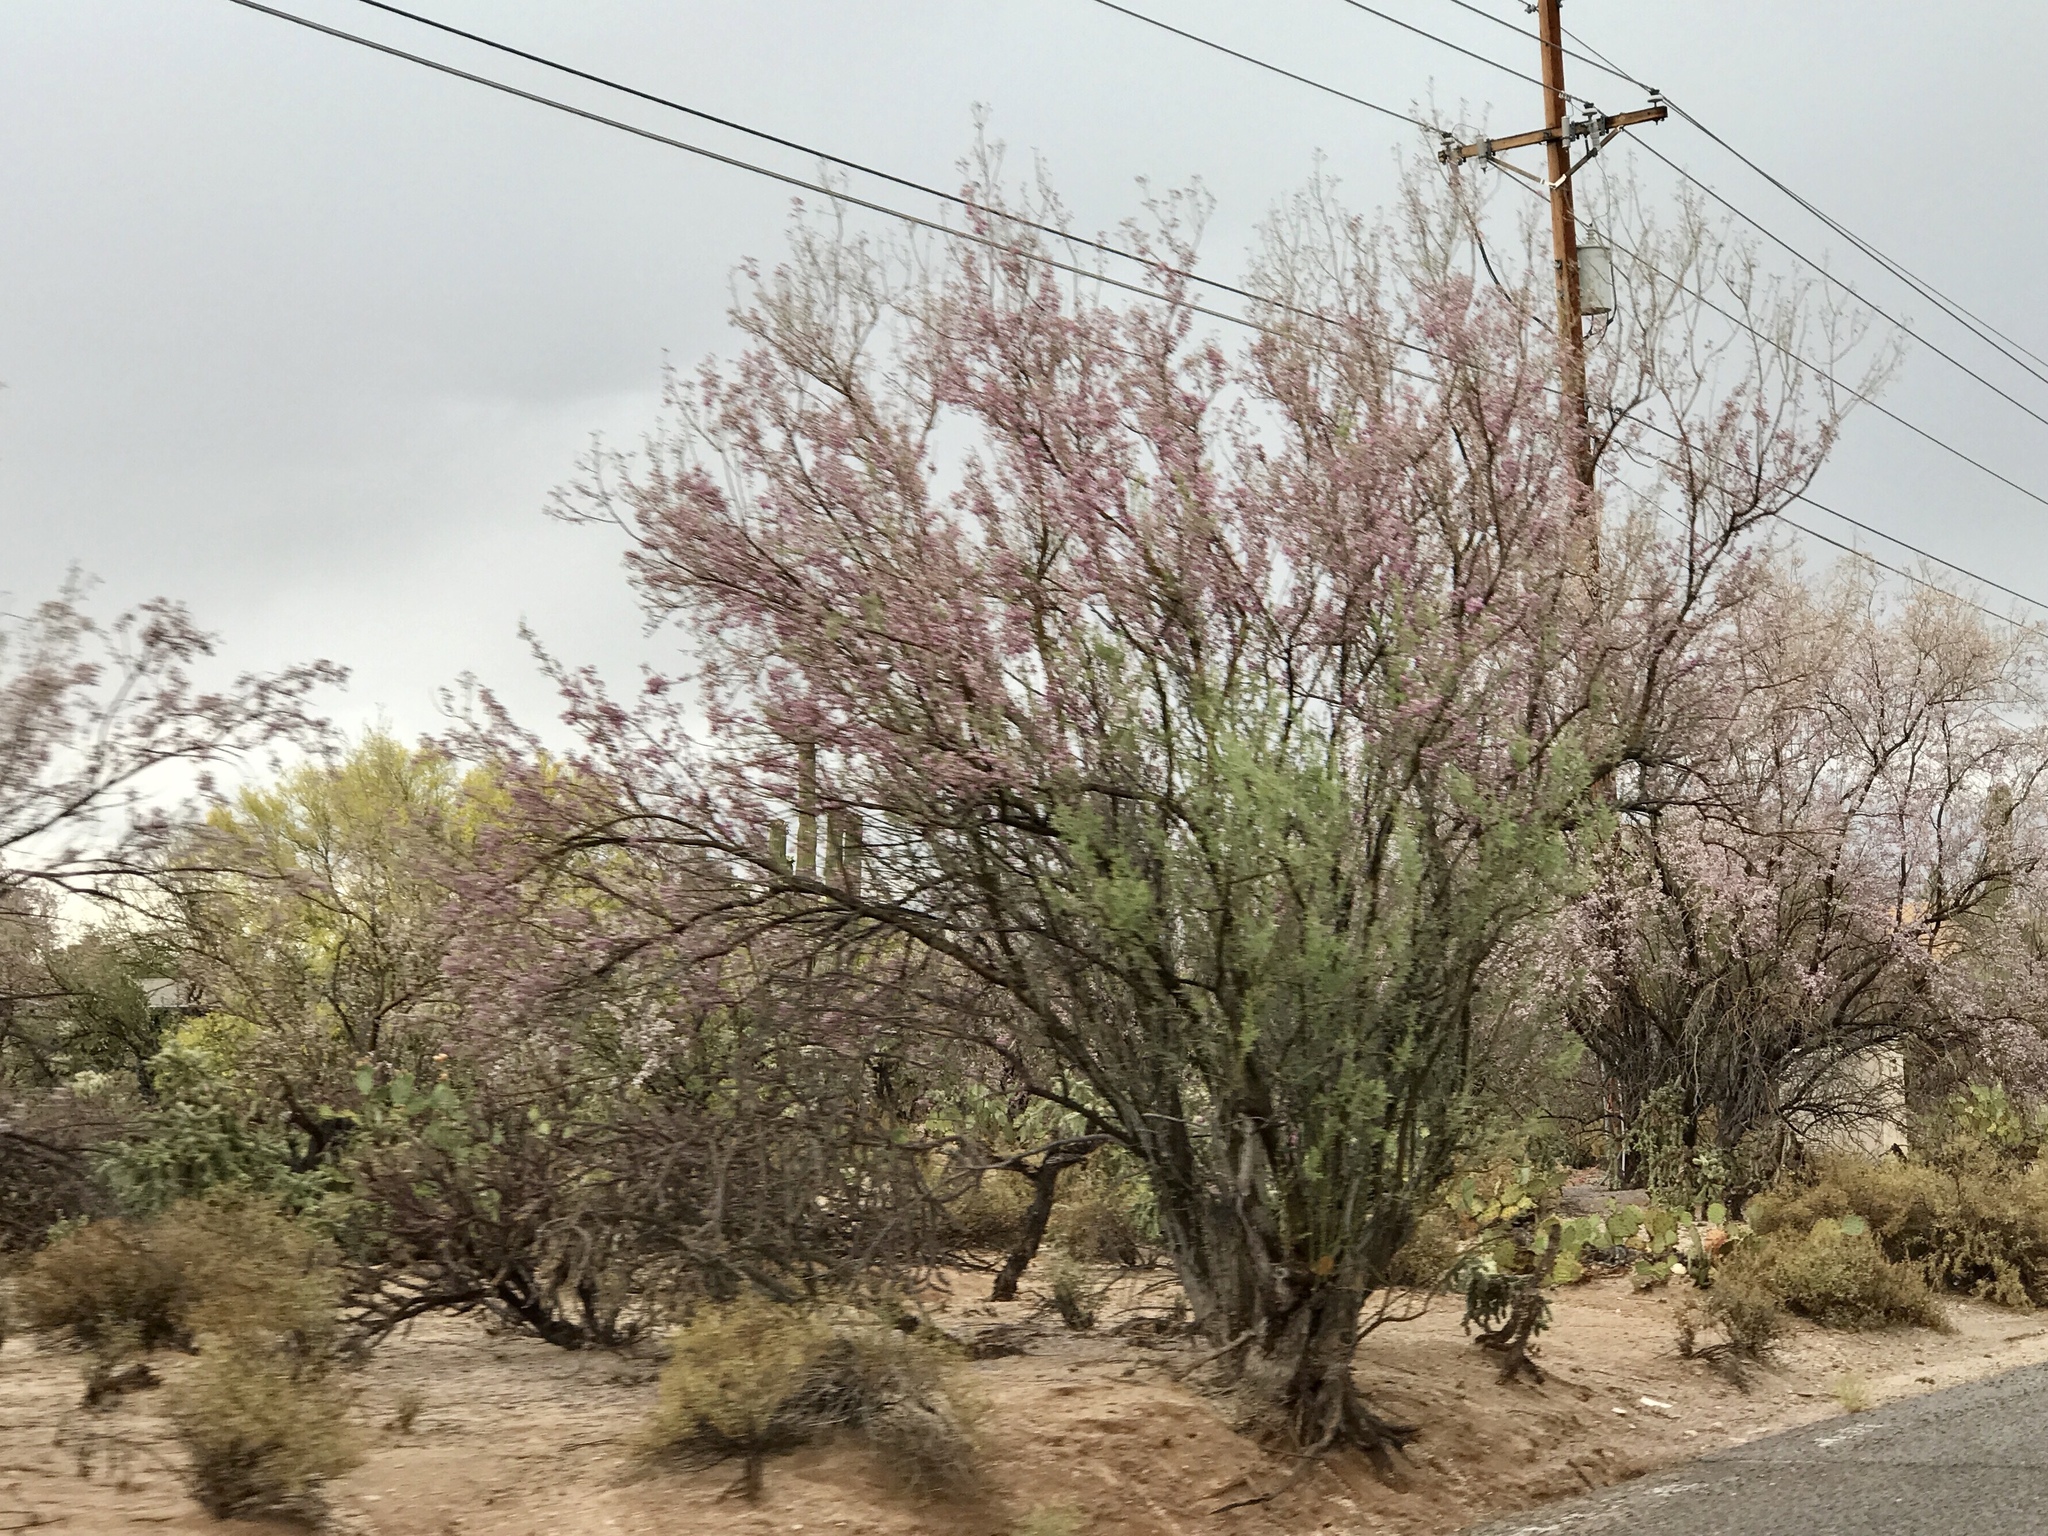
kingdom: Plantae
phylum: Tracheophyta
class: Magnoliopsida
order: Fabales
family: Fabaceae
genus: Olneya
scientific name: Olneya tesota
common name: Desert ironwood
